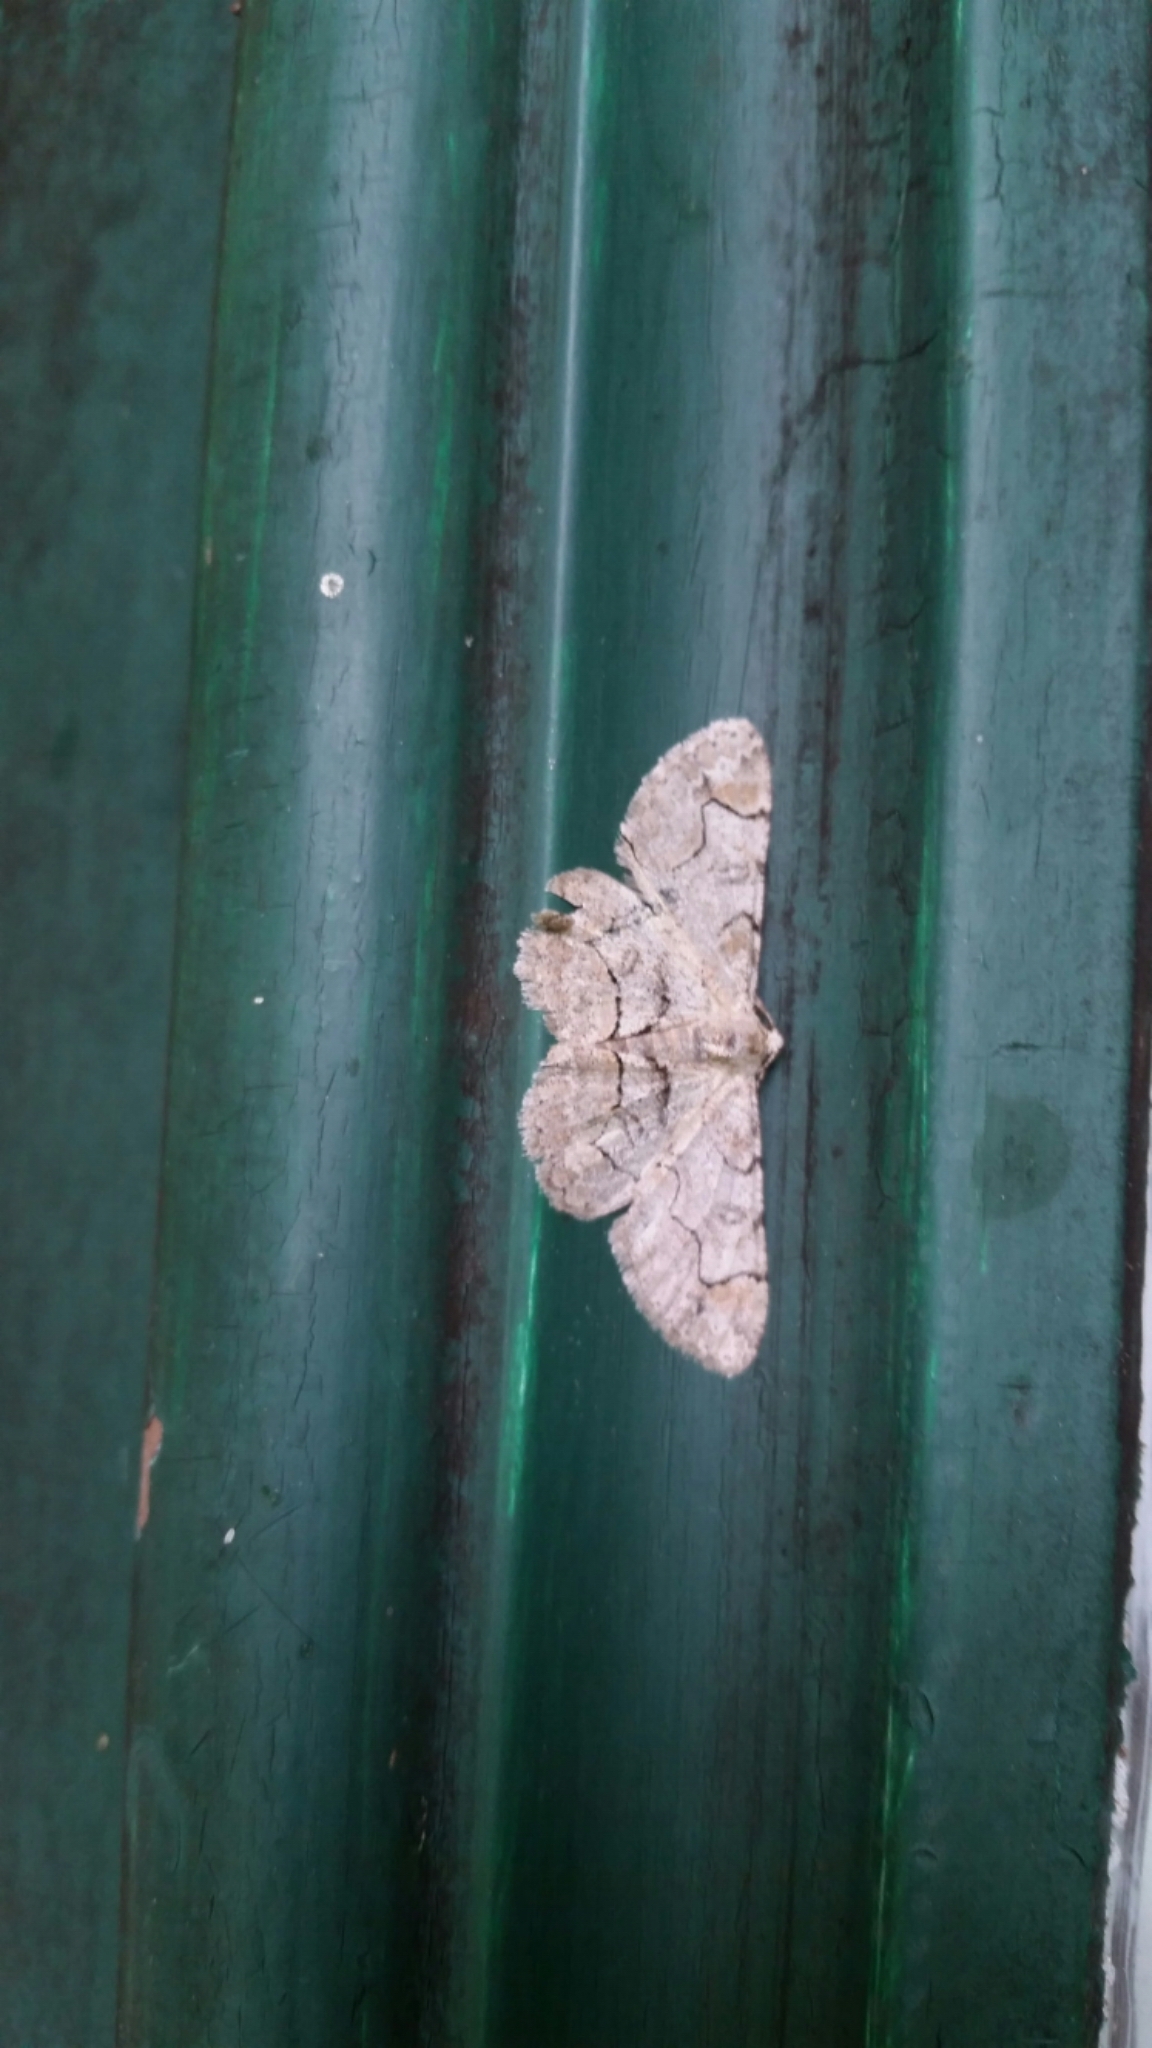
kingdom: Animalia
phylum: Arthropoda
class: Insecta
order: Lepidoptera
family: Geometridae
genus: Iridopsis
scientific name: Iridopsis larvaria
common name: Bent-line gray
